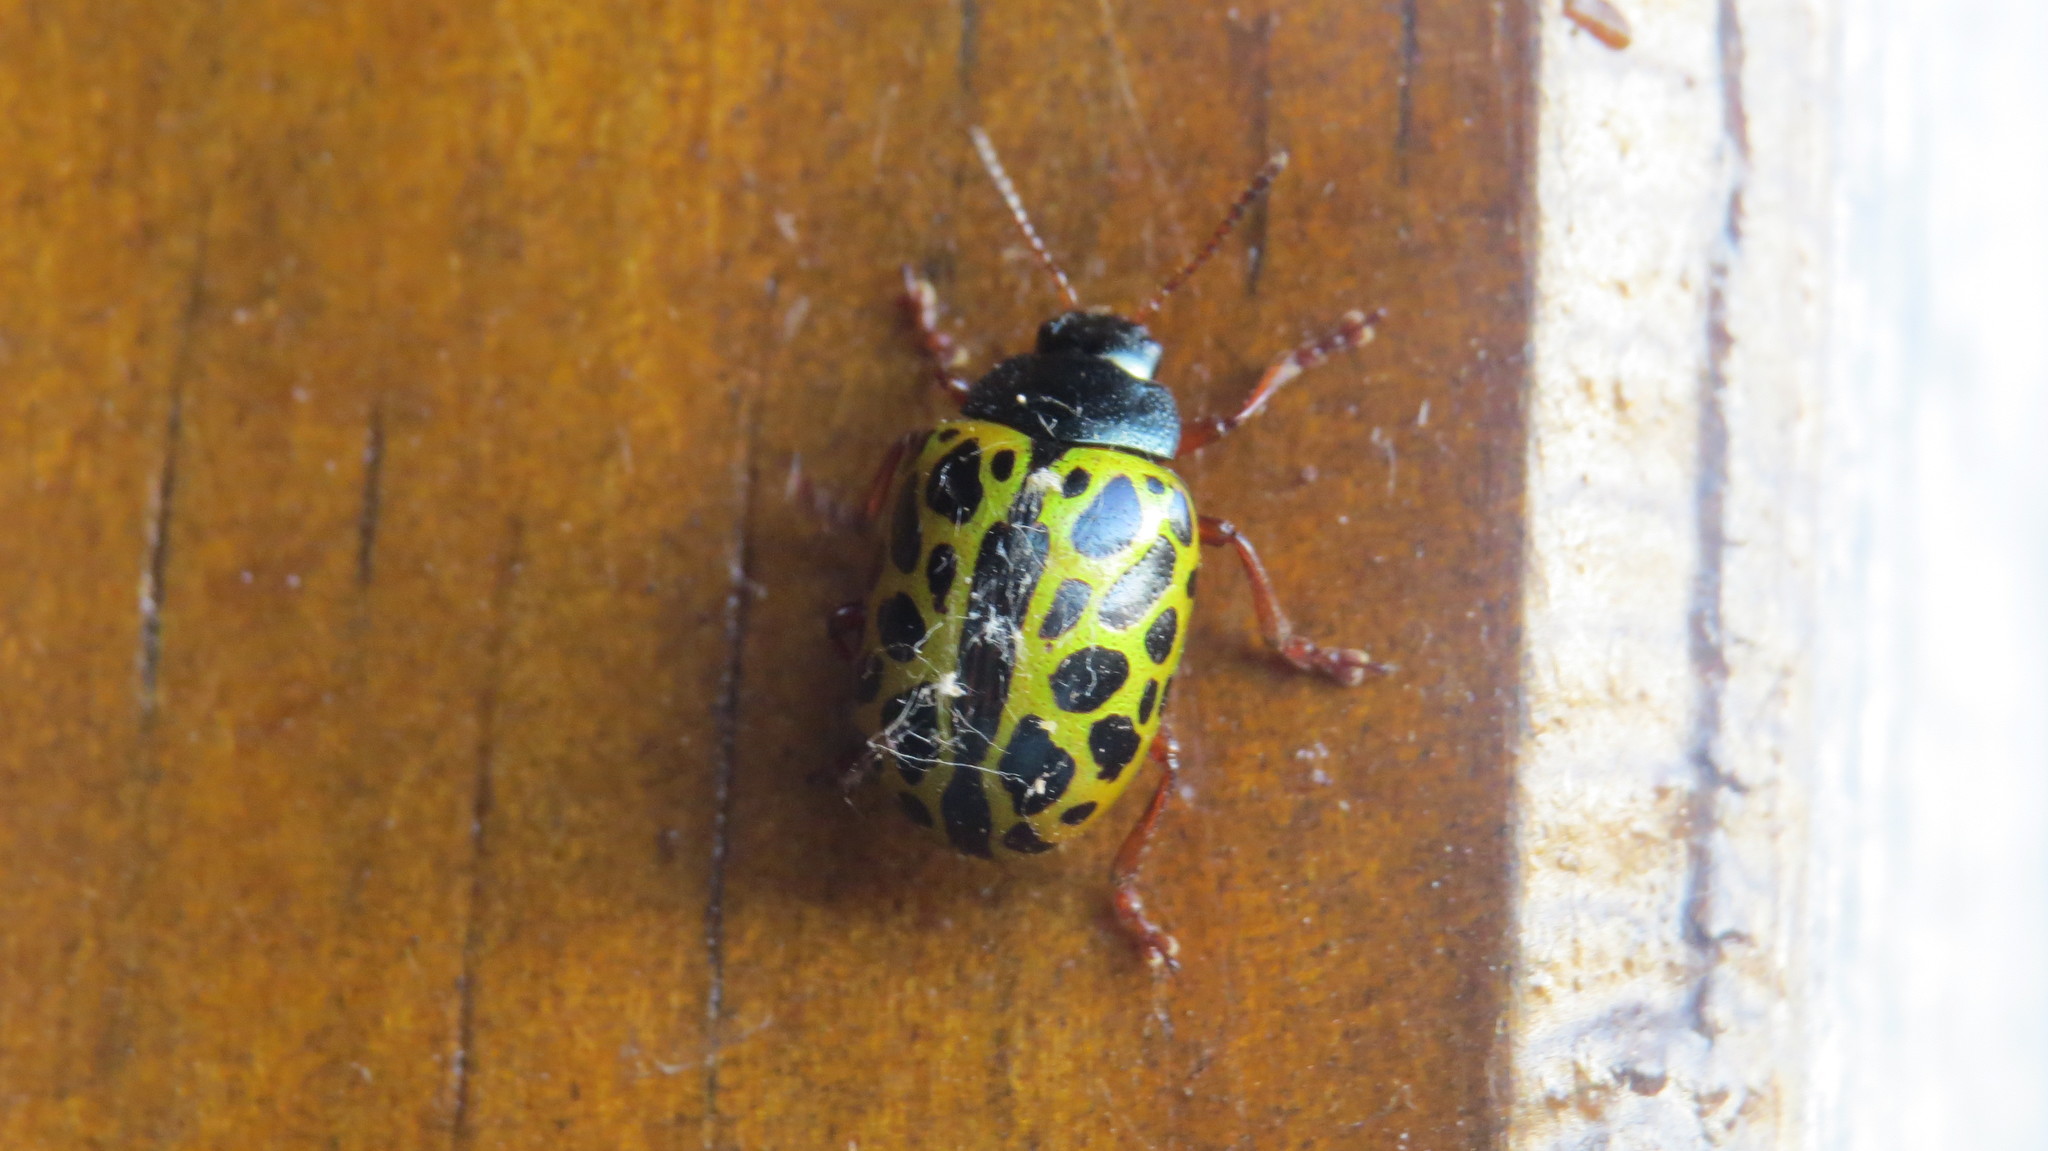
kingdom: Animalia
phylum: Arthropoda
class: Insecta
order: Coleoptera
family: Chrysomelidae
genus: Calligrapha
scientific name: Calligrapha polyspila
